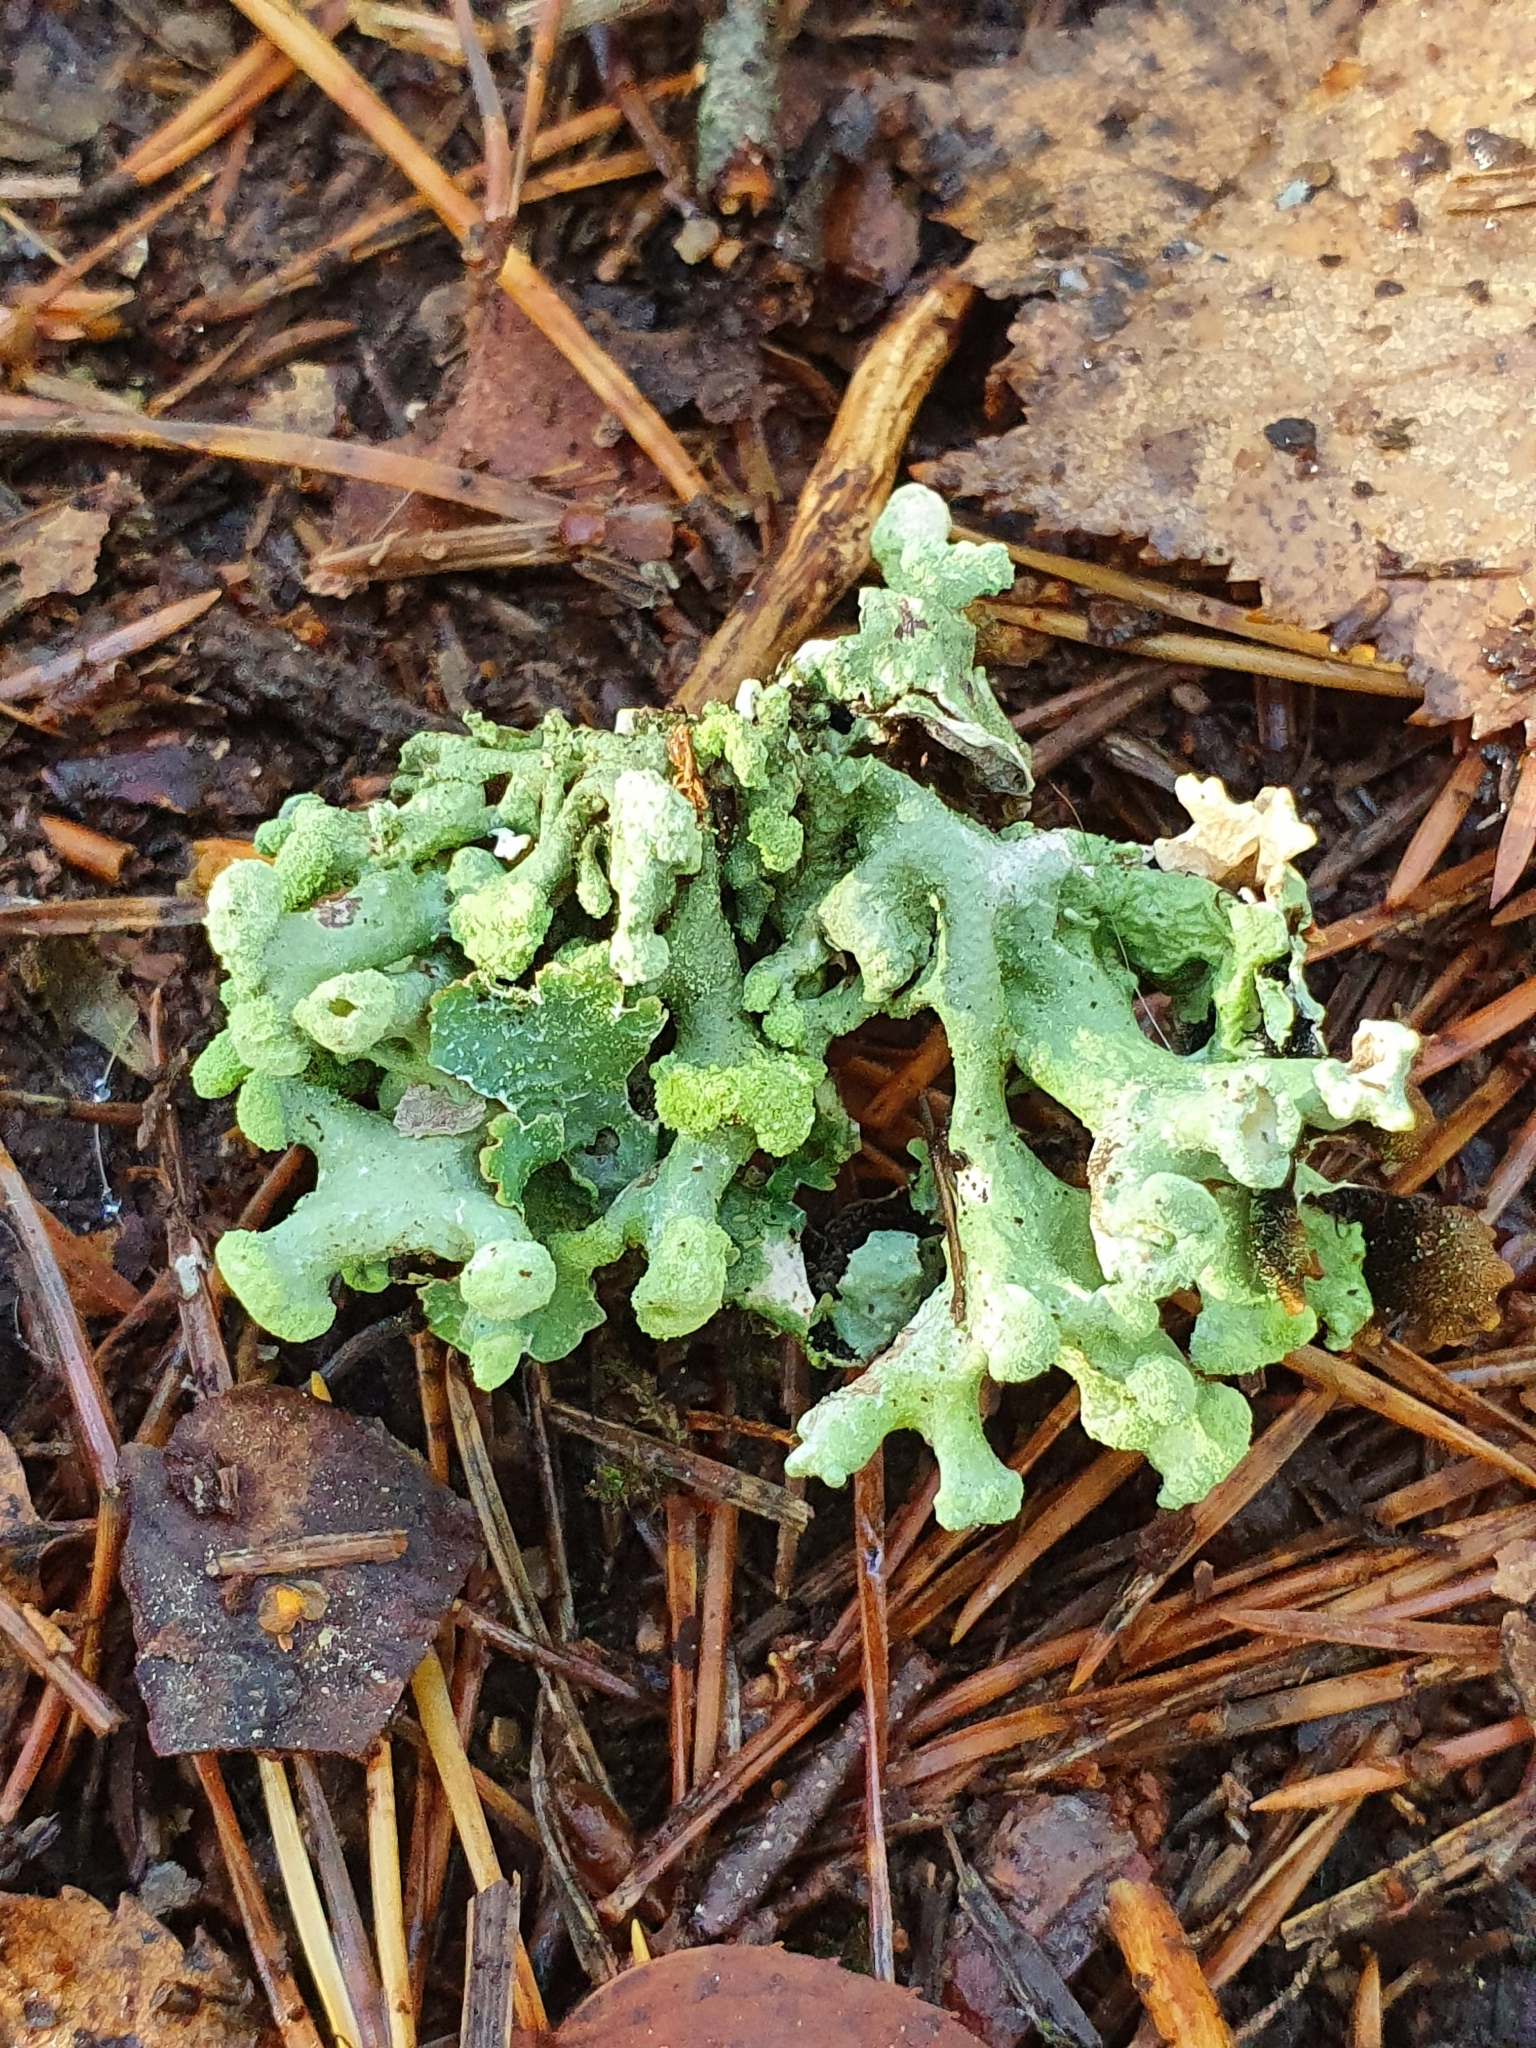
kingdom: Fungi
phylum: Ascomycota
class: Lecanoromycetes
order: Lecanorales
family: Parmeliaceae
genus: Hypogymnia
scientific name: Hypogymnia tubulosa
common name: Powder-headed tube lichen
